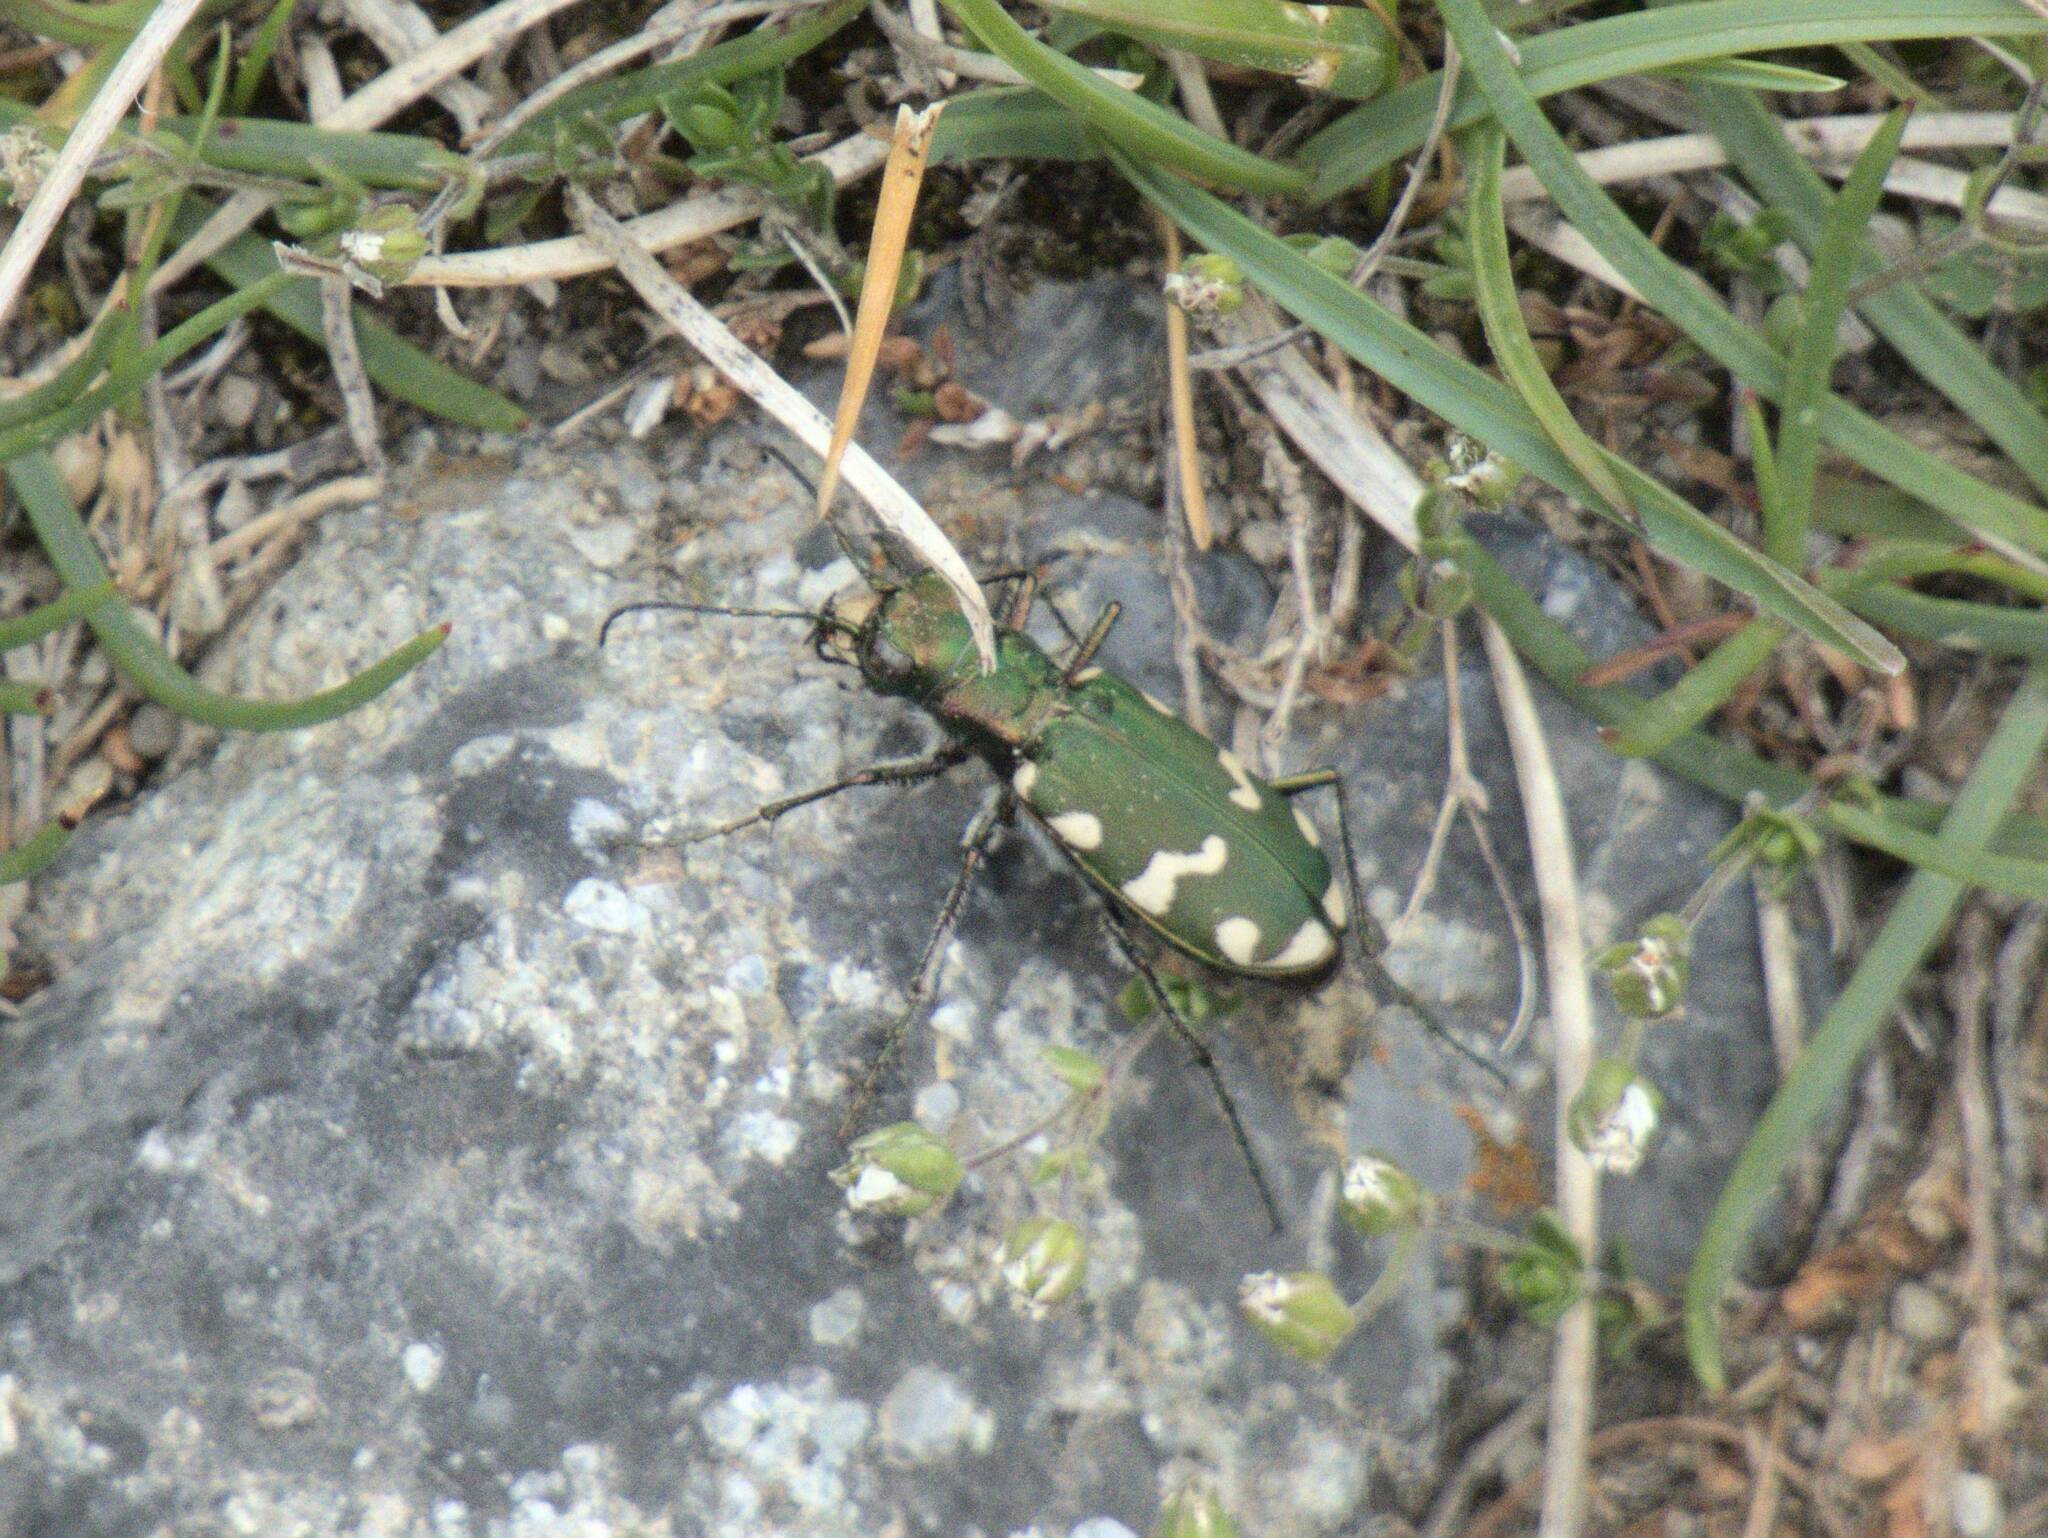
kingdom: Animalia
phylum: Arthropoda
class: Insecta
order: Coleoptera
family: Carabidae
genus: Cicindela
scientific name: Cicindela gallica
